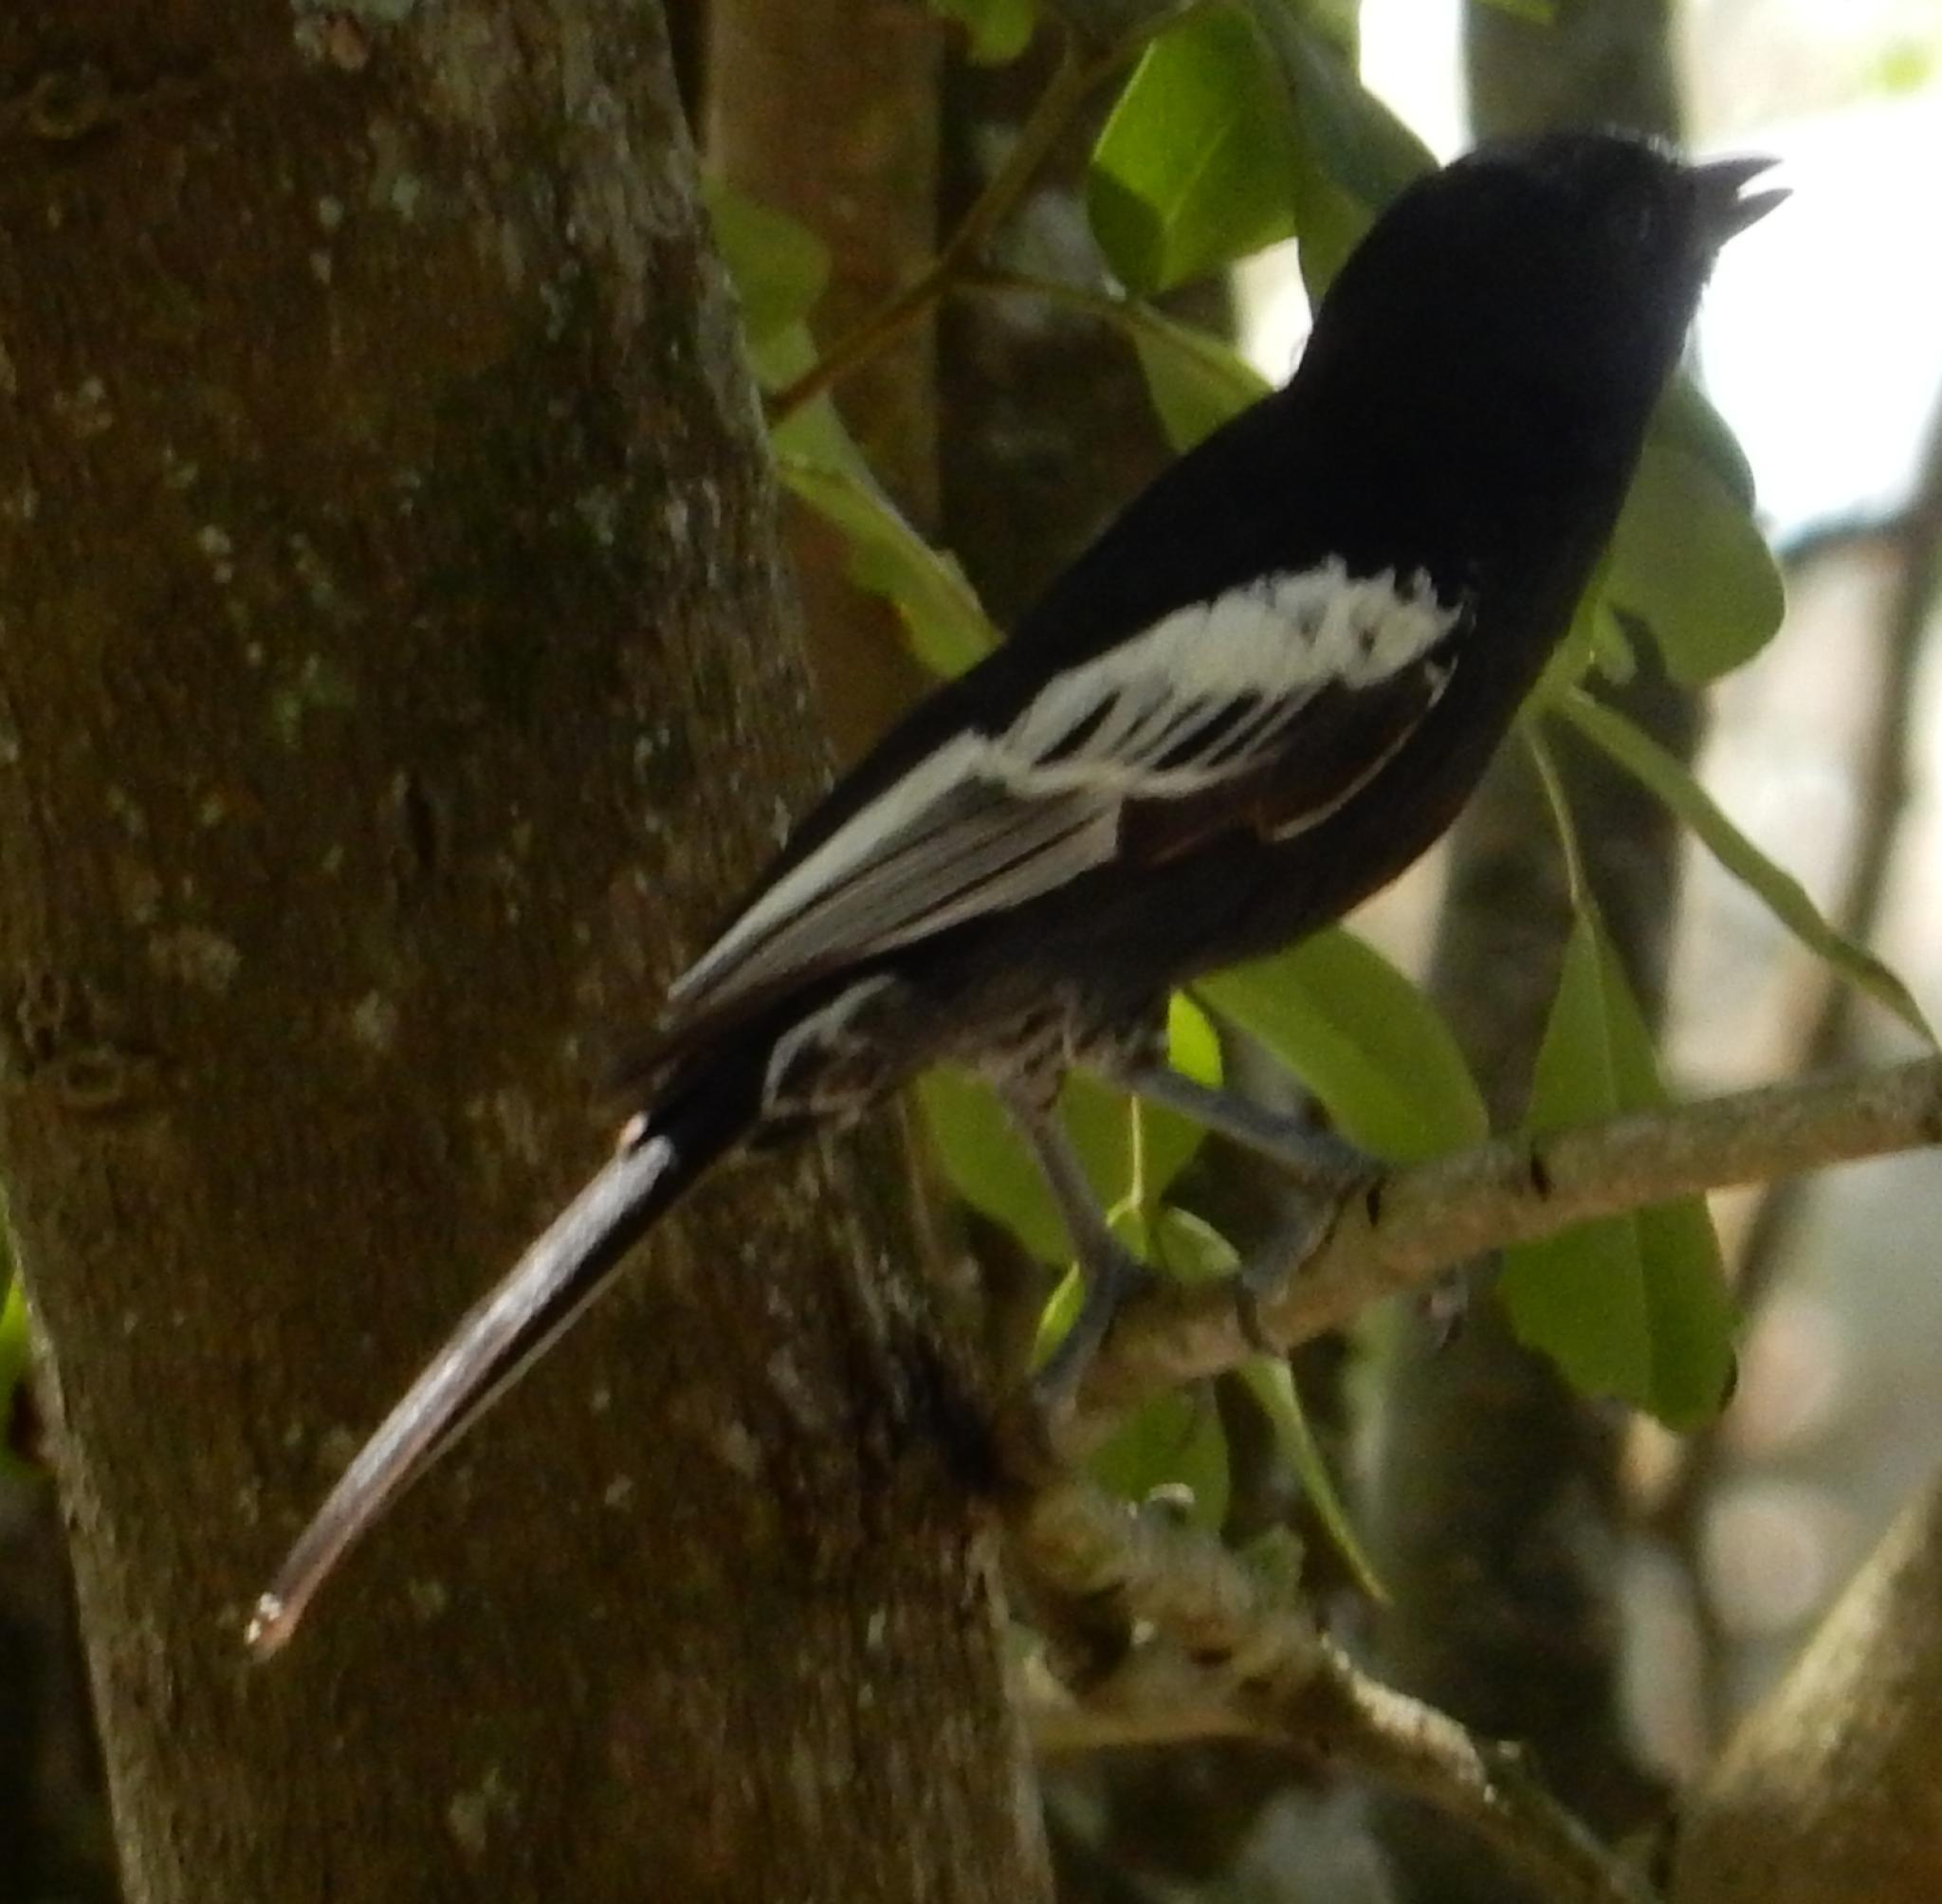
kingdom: Animalia
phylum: Chordata
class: Aves
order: Passeriformes
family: Paridae
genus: Parus
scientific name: Parus niger
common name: Southern black tit
